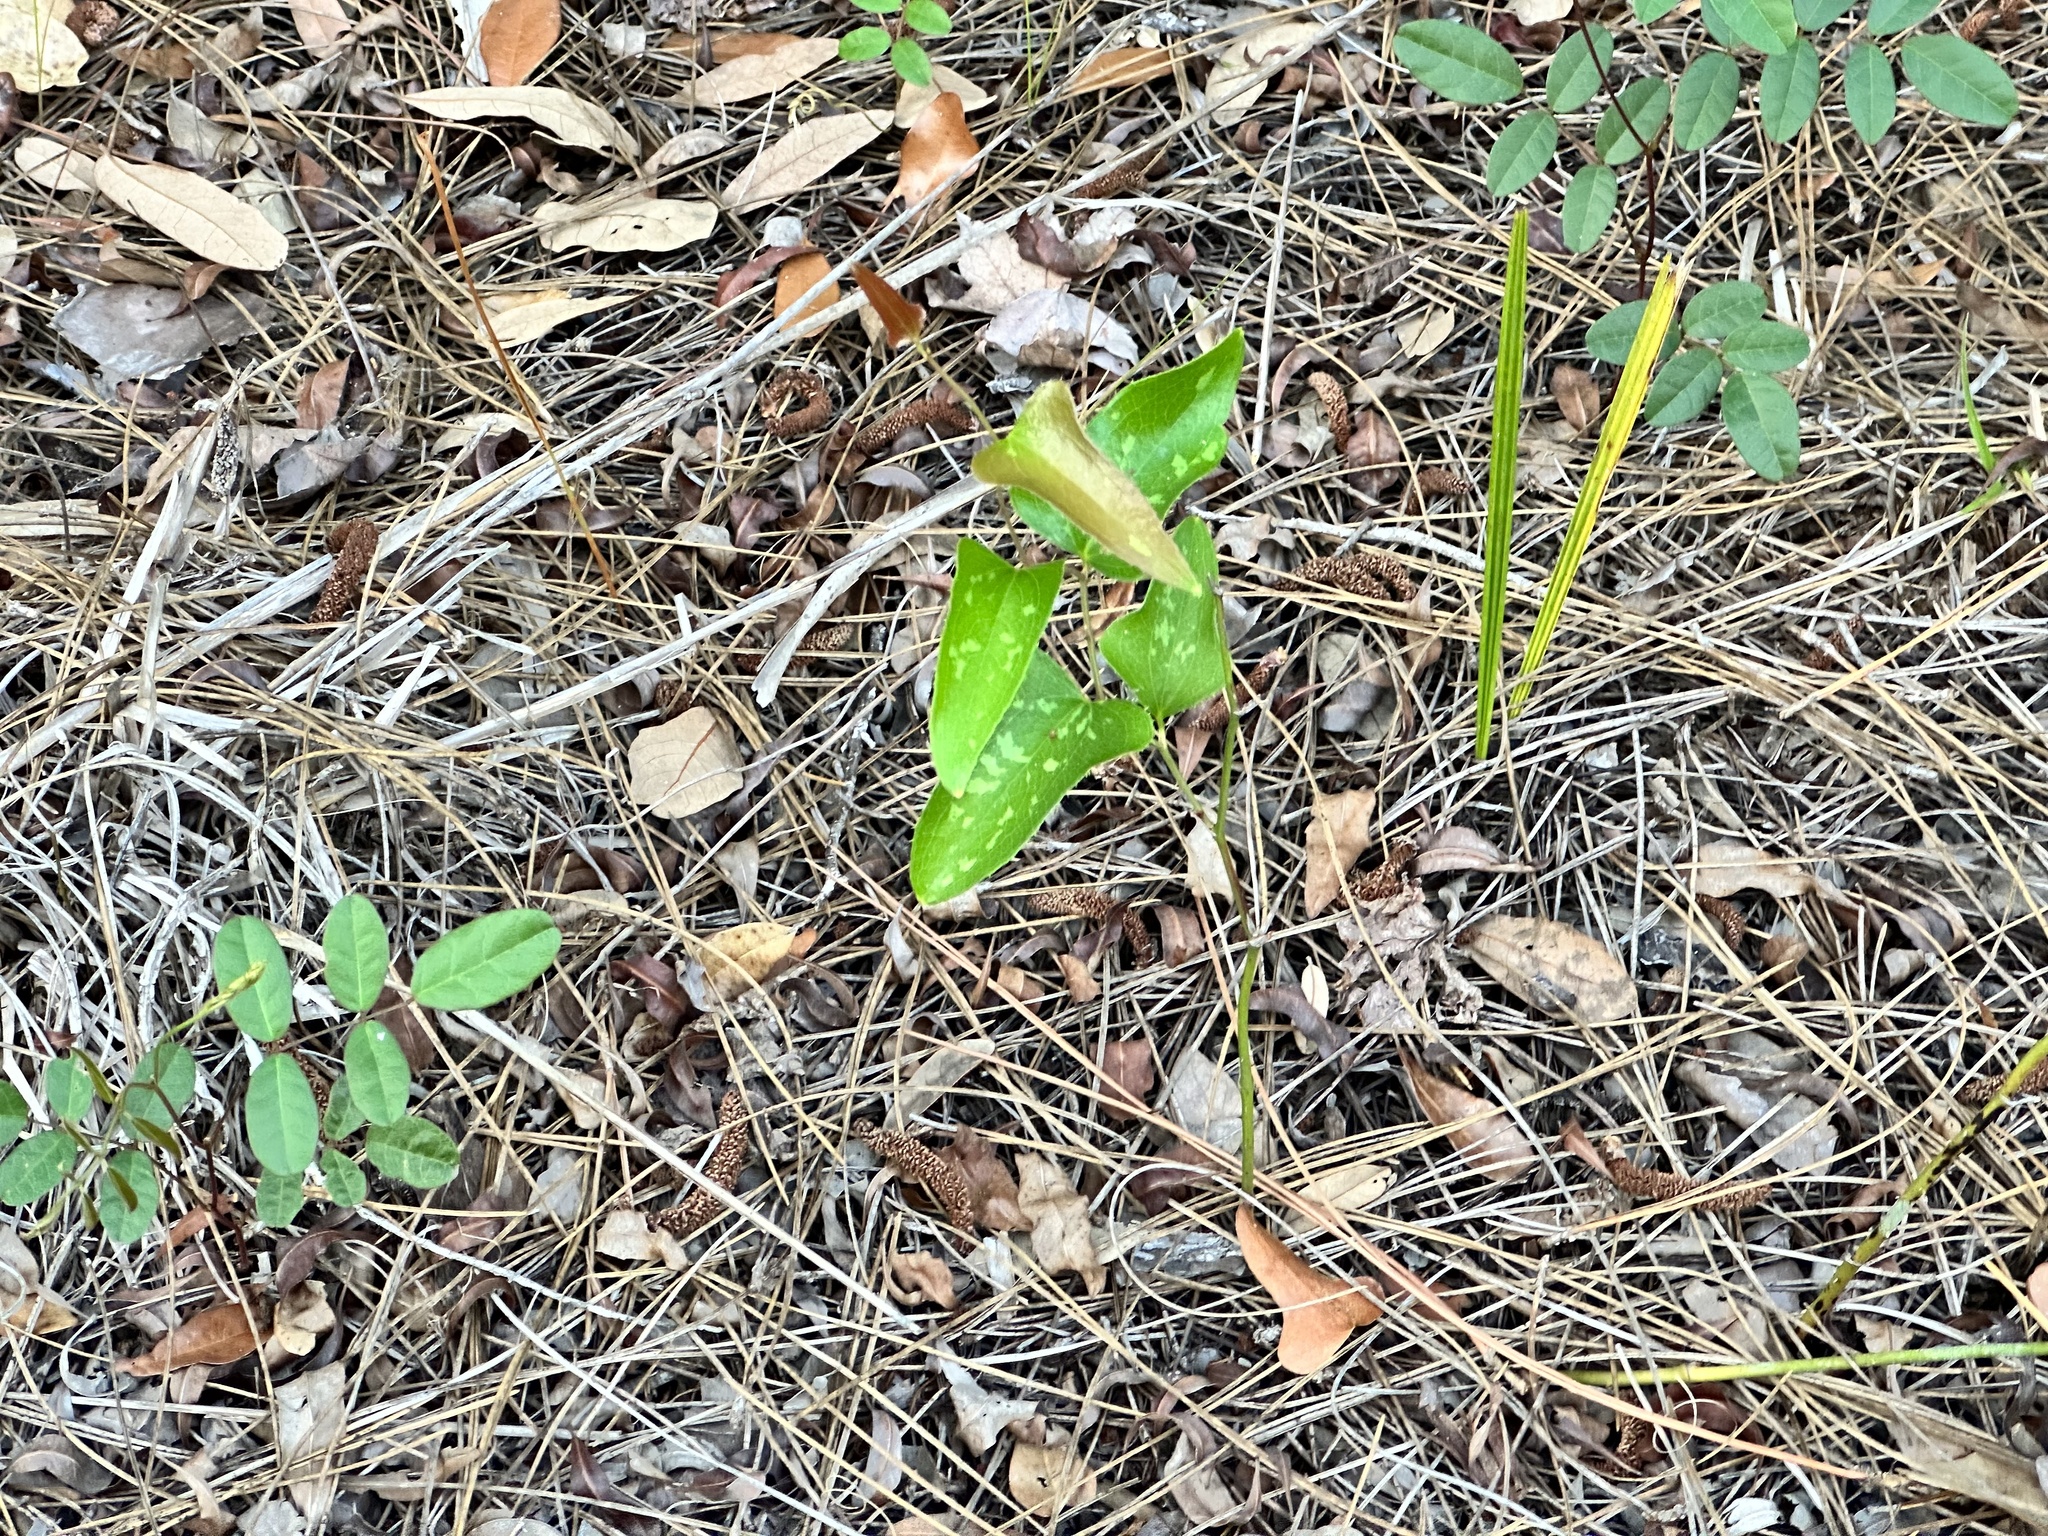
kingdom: Plantae
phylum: Tracheophyta
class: Liliopsida
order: Liliales
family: Smilacaceae
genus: Smilax
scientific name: Smilax bona-nox
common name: Catbrier
